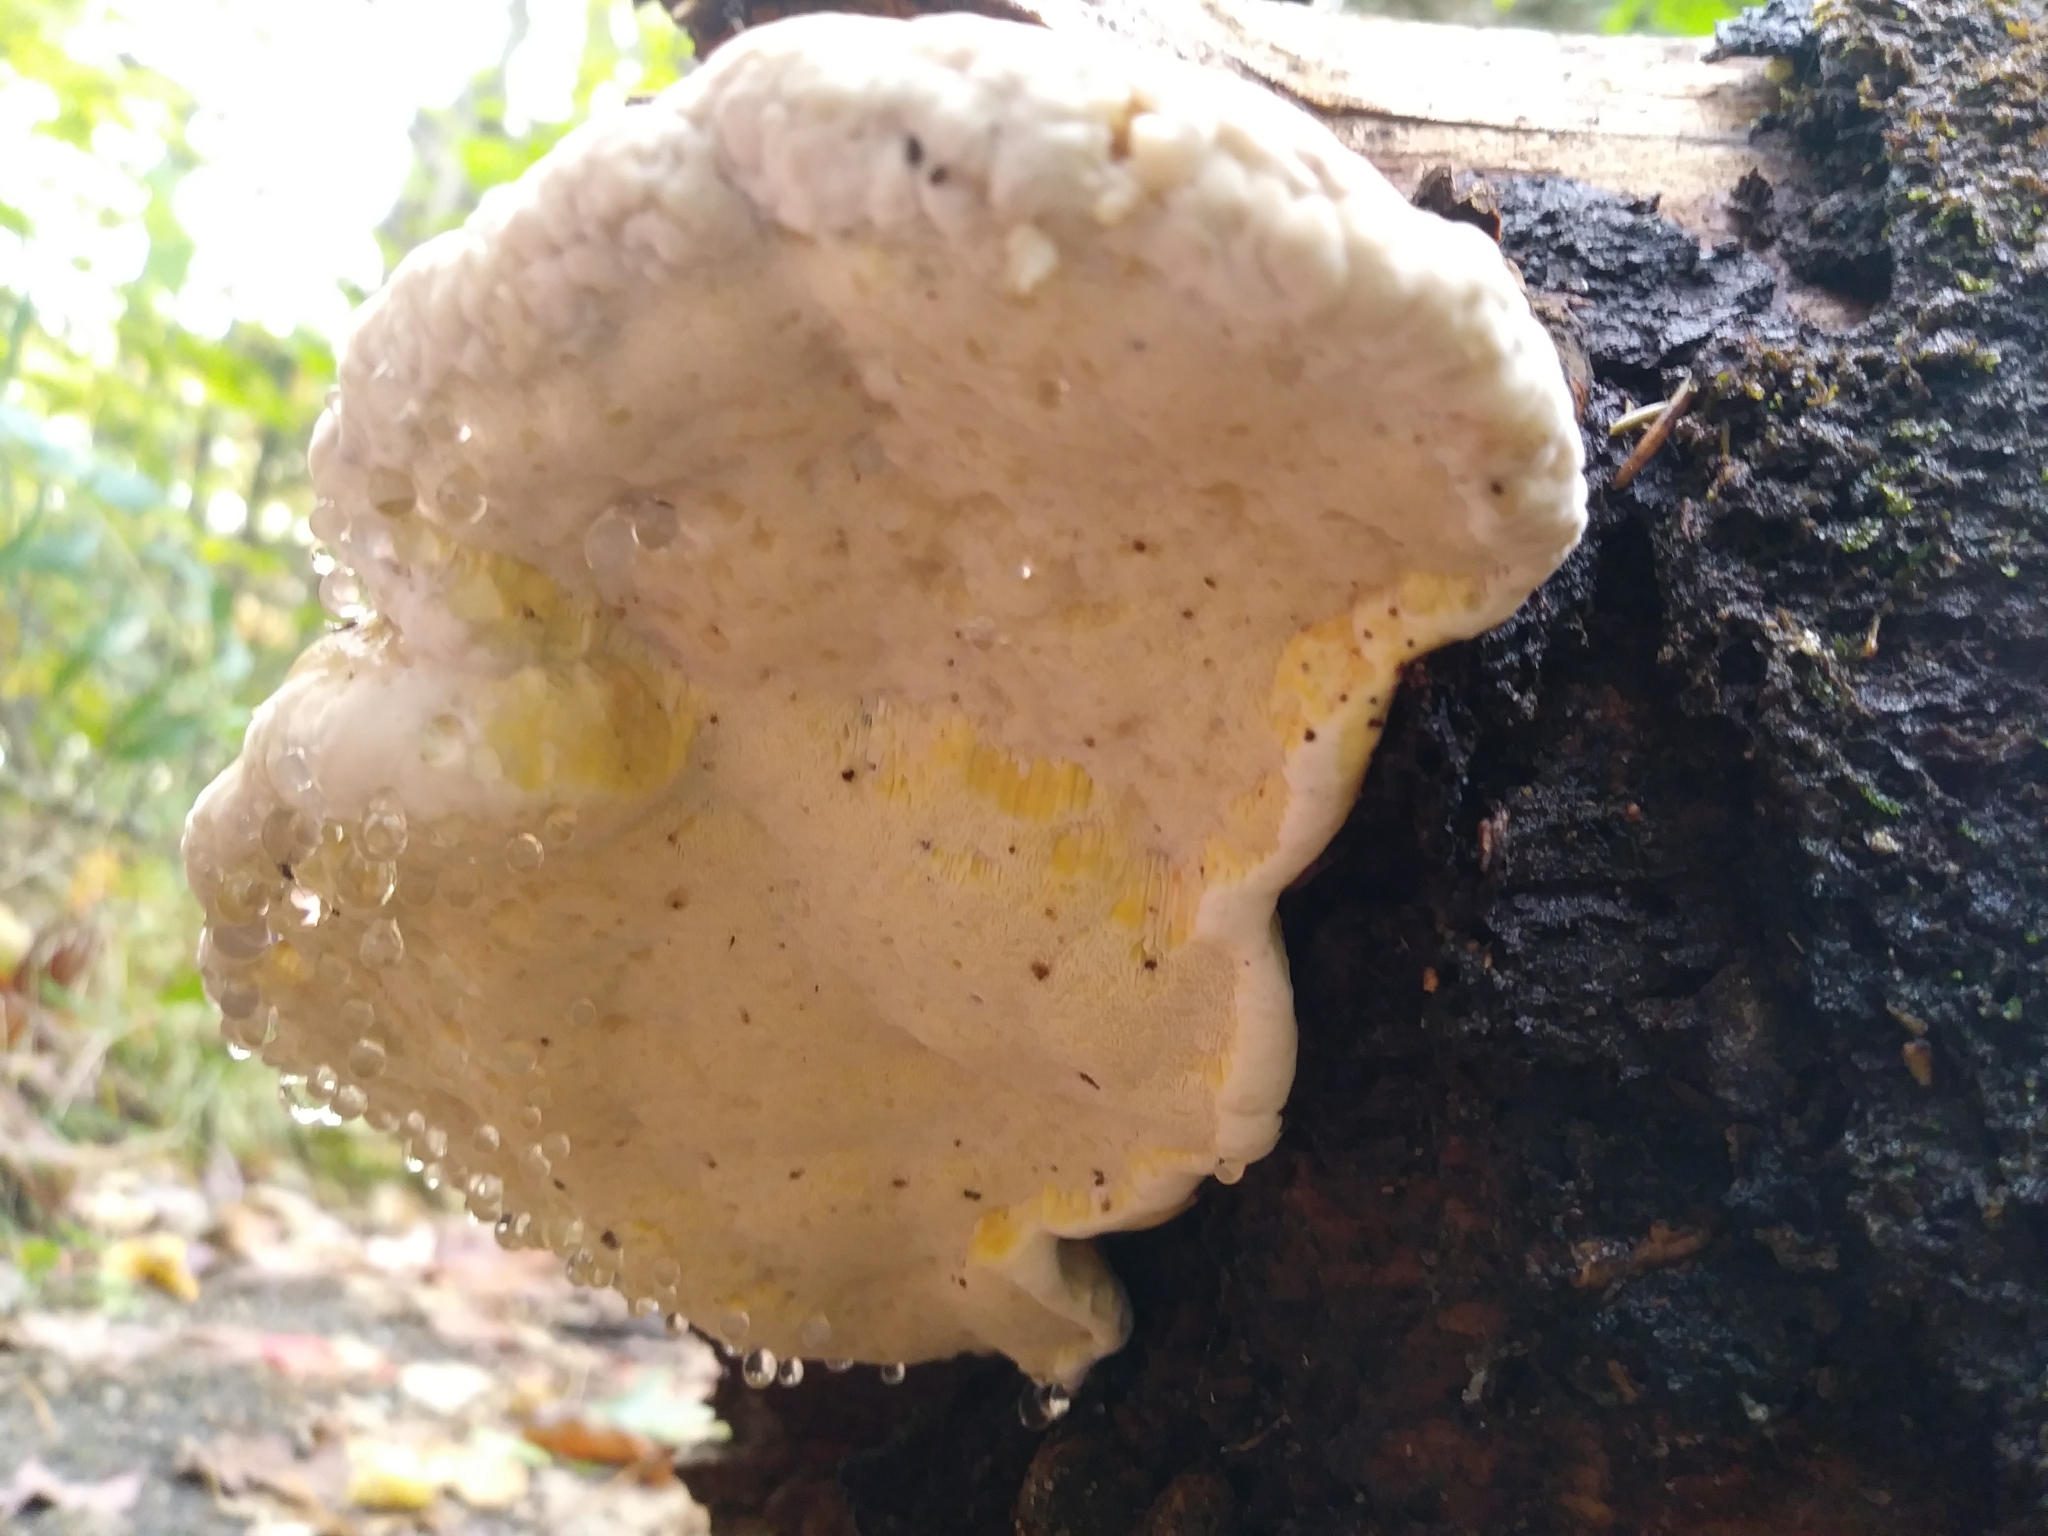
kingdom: Fungi
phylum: Basidiomycota
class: Agaricomycetes
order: Polyporales
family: Fomitopsidaceae
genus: Fomitopsis
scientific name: Fomitopsis mounceae
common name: Northern red belt
